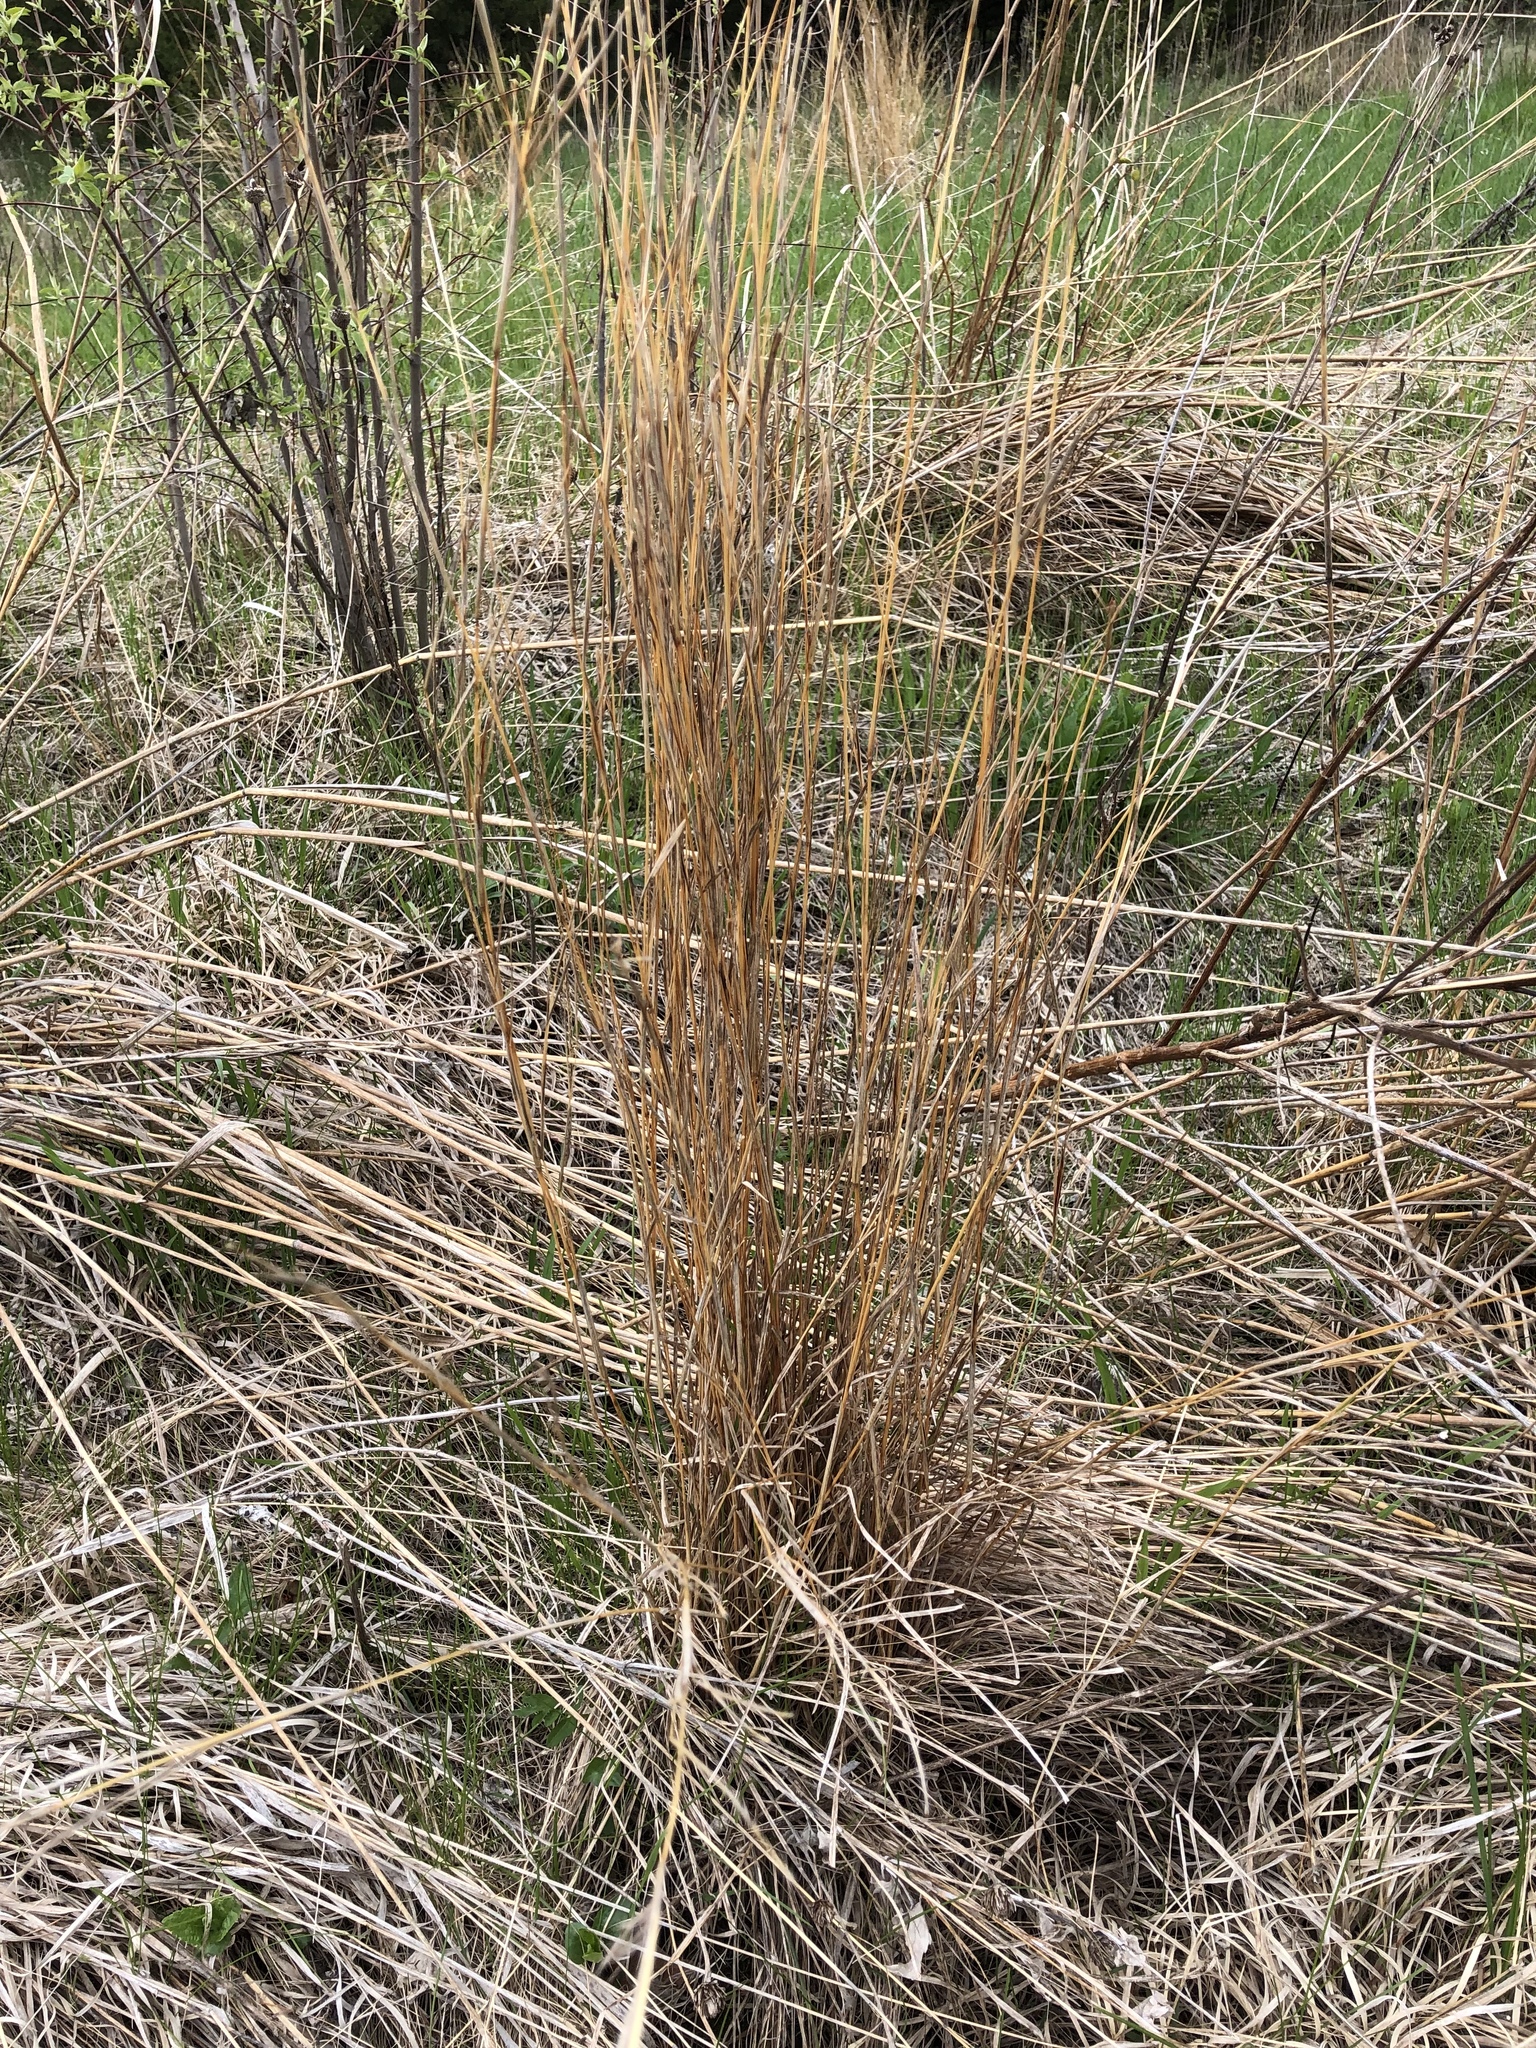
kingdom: Plantae
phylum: Tracheophyta
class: Liliopsida
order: Poales
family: Poaceae
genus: Schizachyrium
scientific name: Schizachyrium scoparium
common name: Little bluestem
